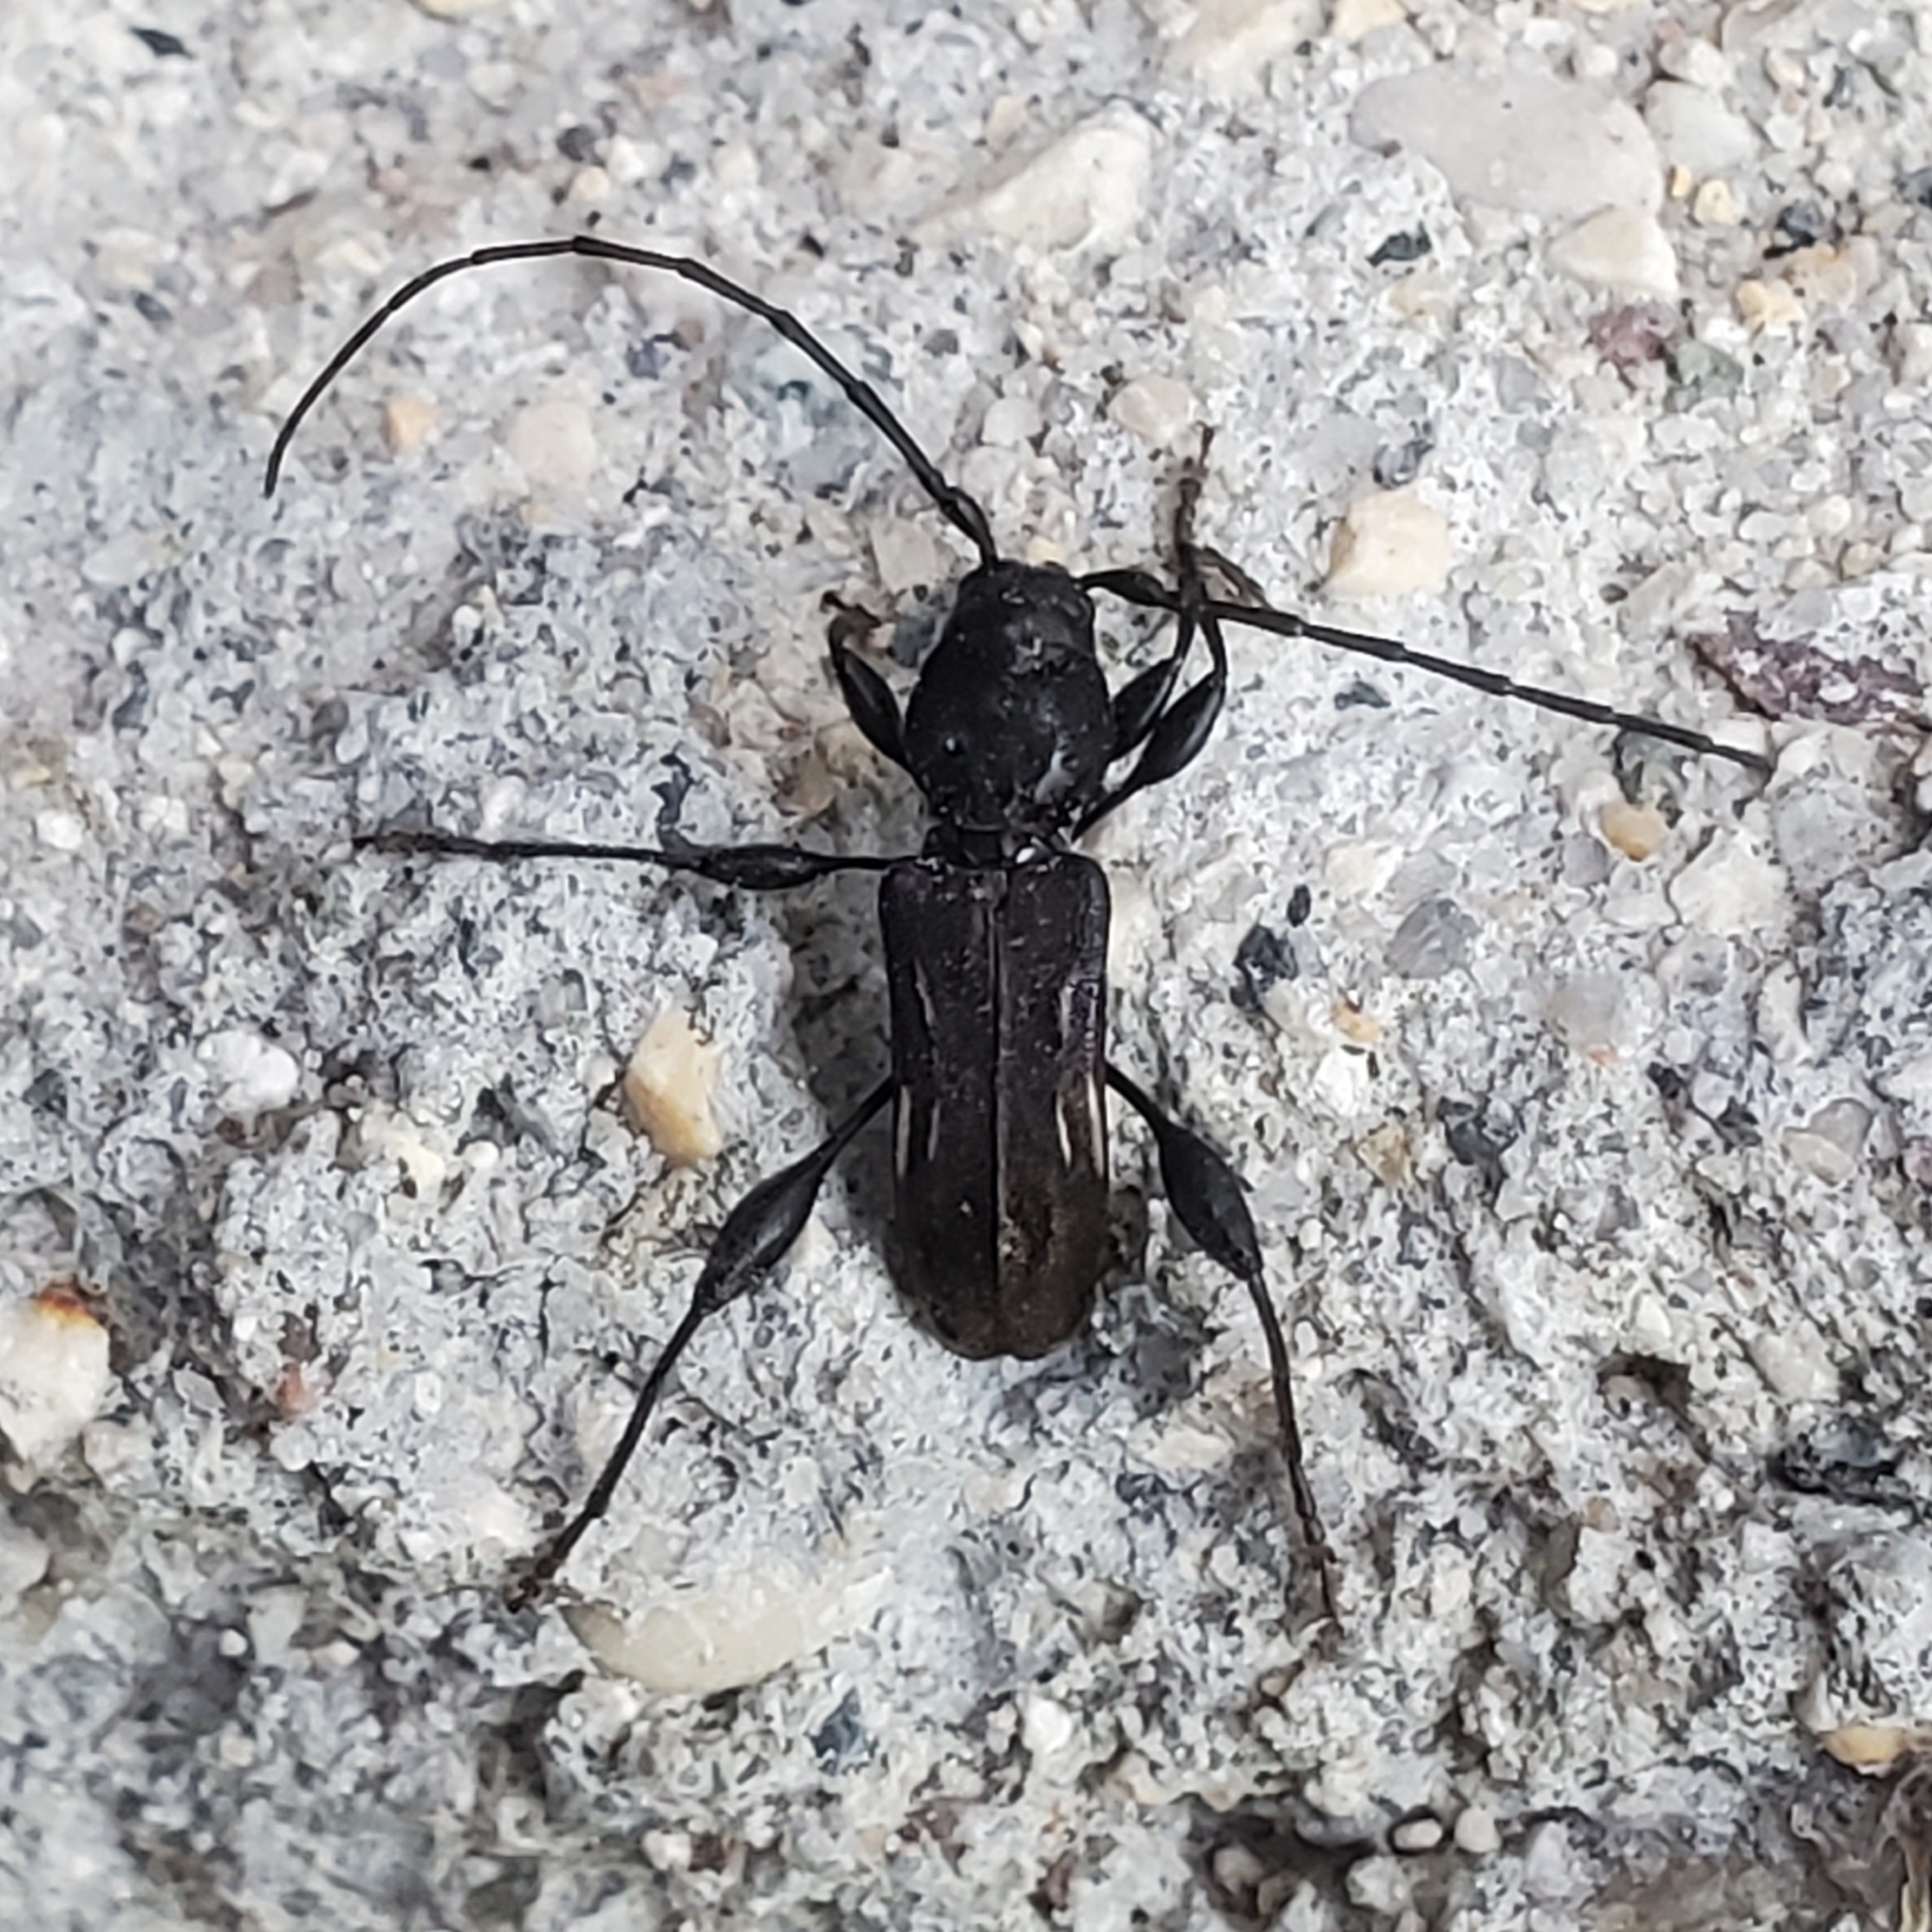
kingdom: Animalia
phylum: Arthropoda
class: Insecta
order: Coleoptera
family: Cerambycidae
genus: Physocnemum
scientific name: Physocnemum brevilineum
